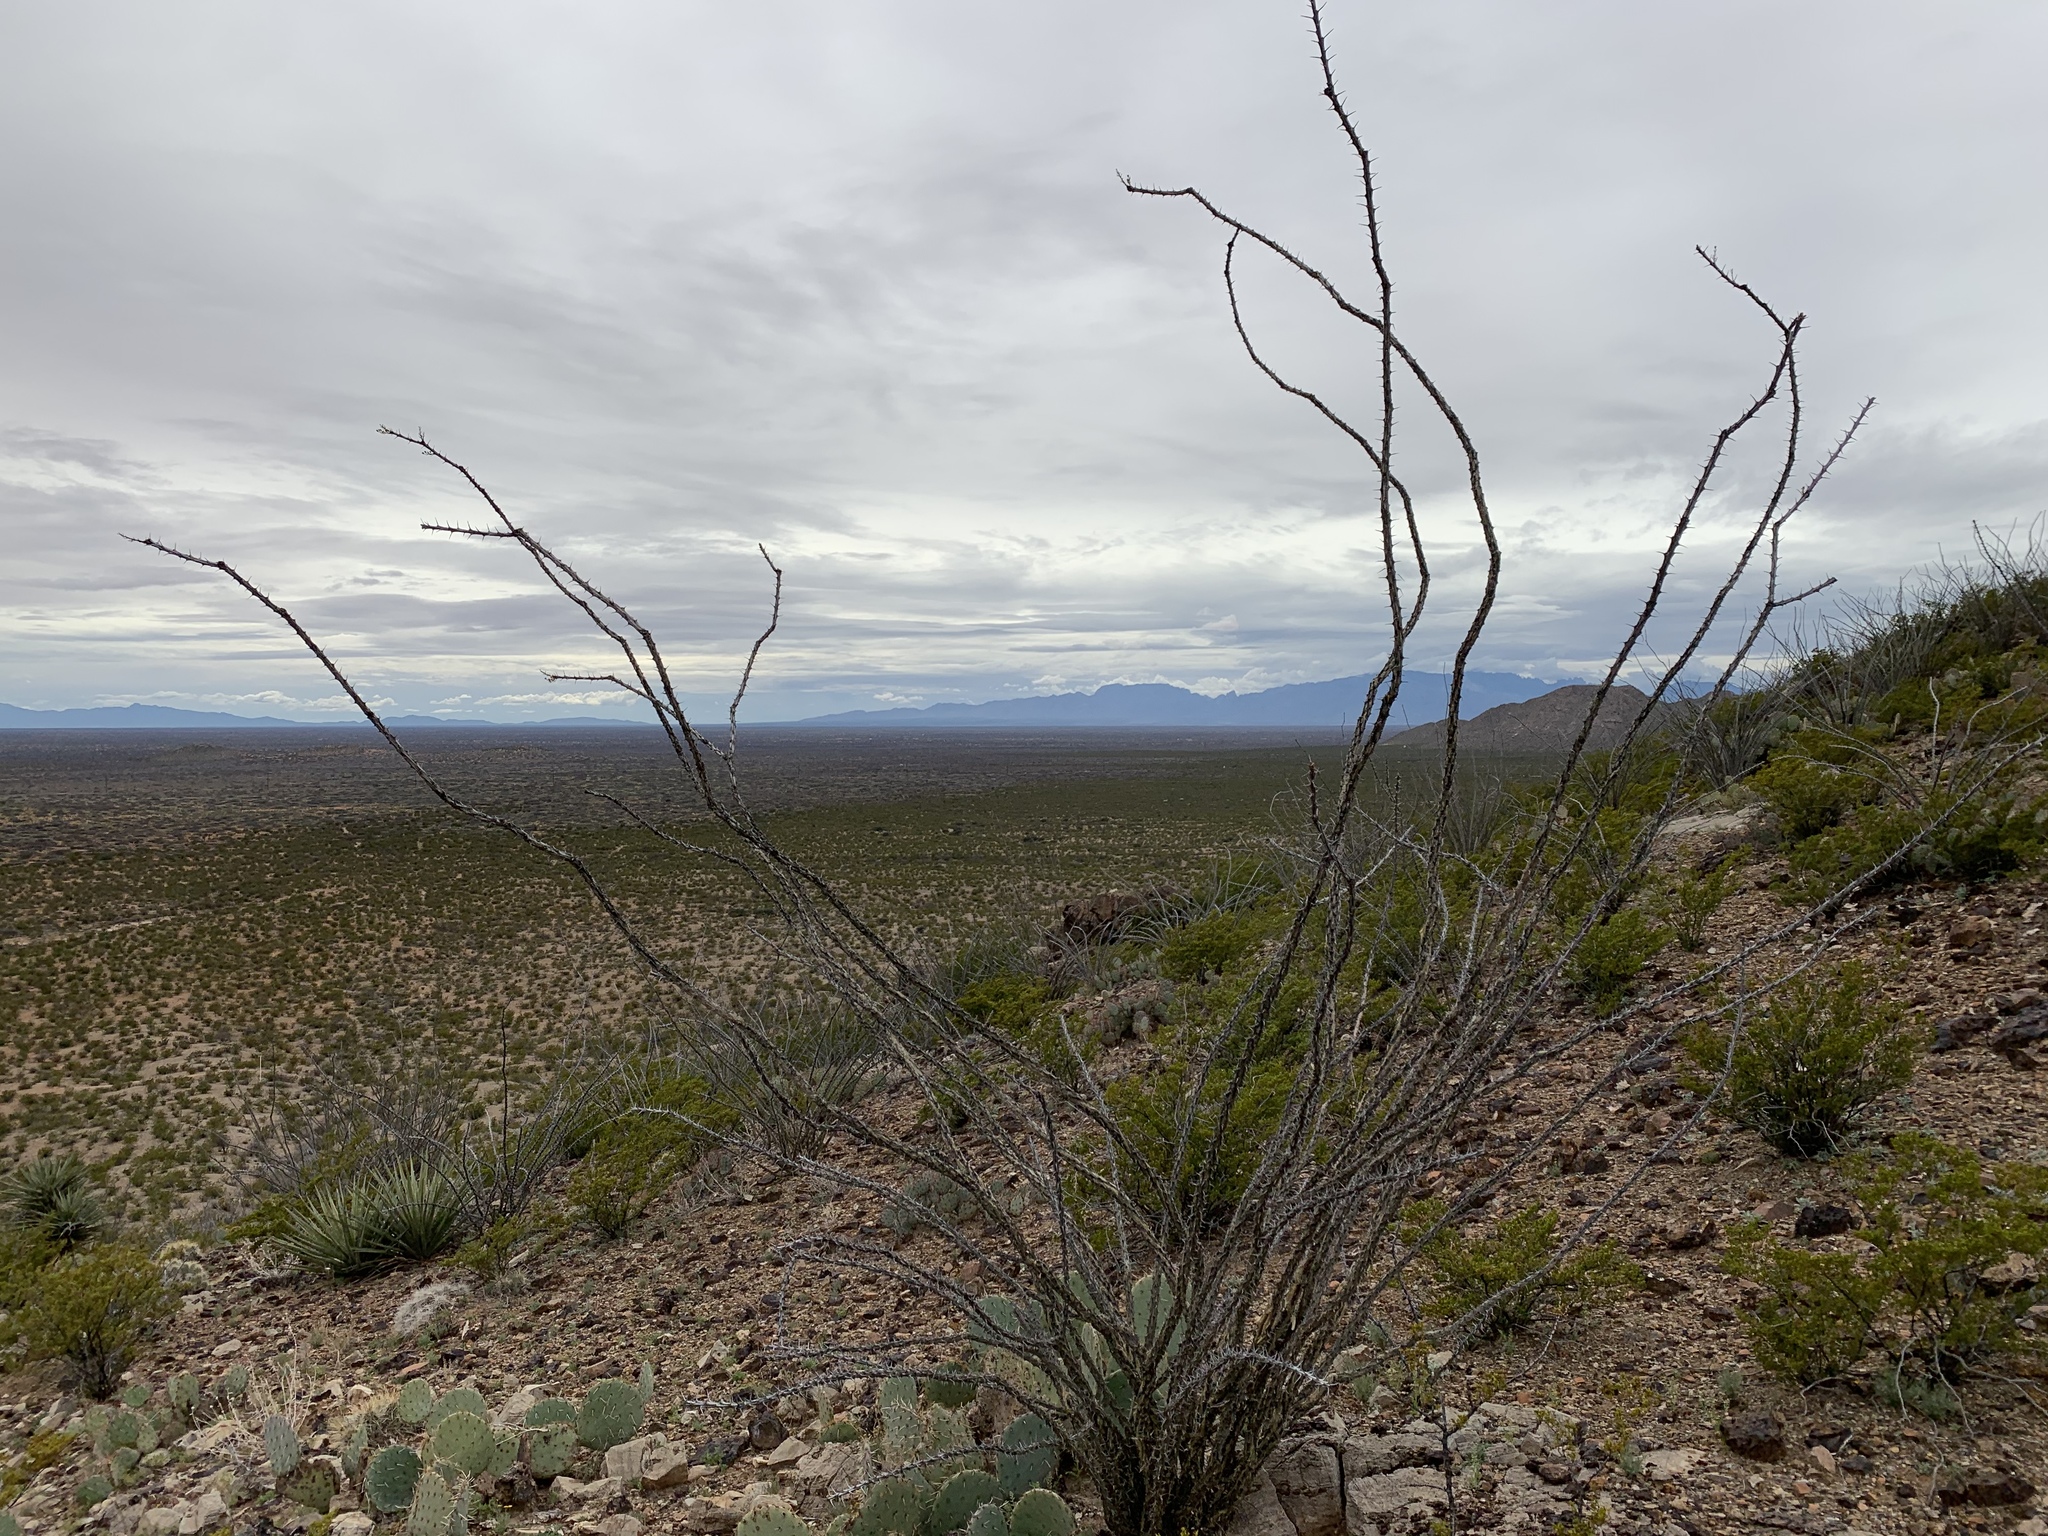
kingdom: Plantae
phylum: Tracheophyta
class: Magnoliopsida
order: Ericales
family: Fouquieriaceae
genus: Fouquieria
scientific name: Fouquieria splendens
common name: Vine-cactus
